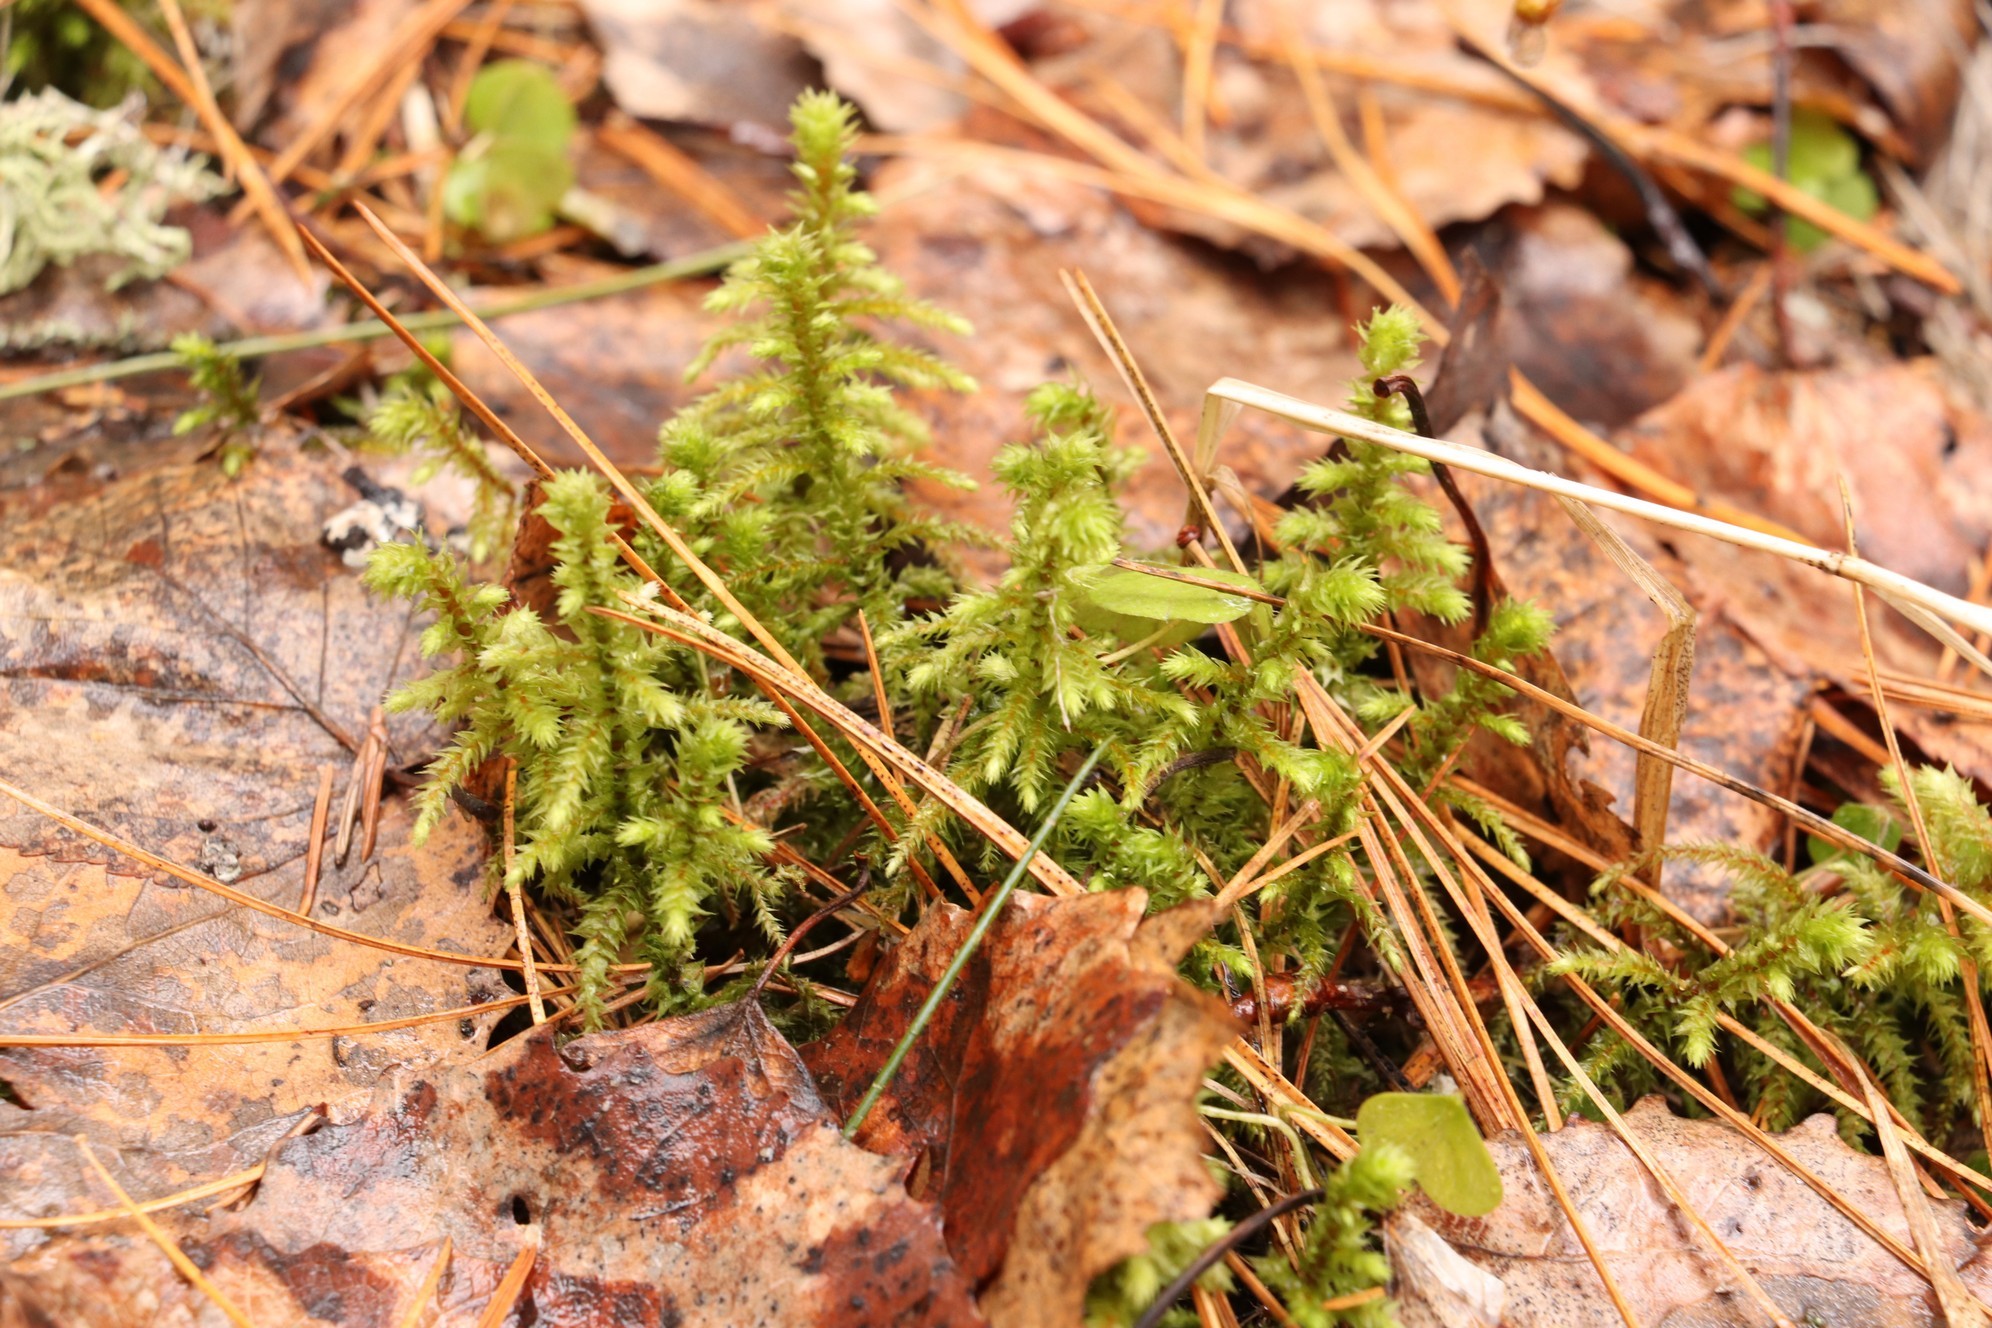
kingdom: Plantae
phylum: Bryophyta
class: Bryopsida
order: Hypnales
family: Hylocomiaceae
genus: Hylocomiadelphus
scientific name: Hylocomiadelphus triquetrus
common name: Rough goose neck moss
